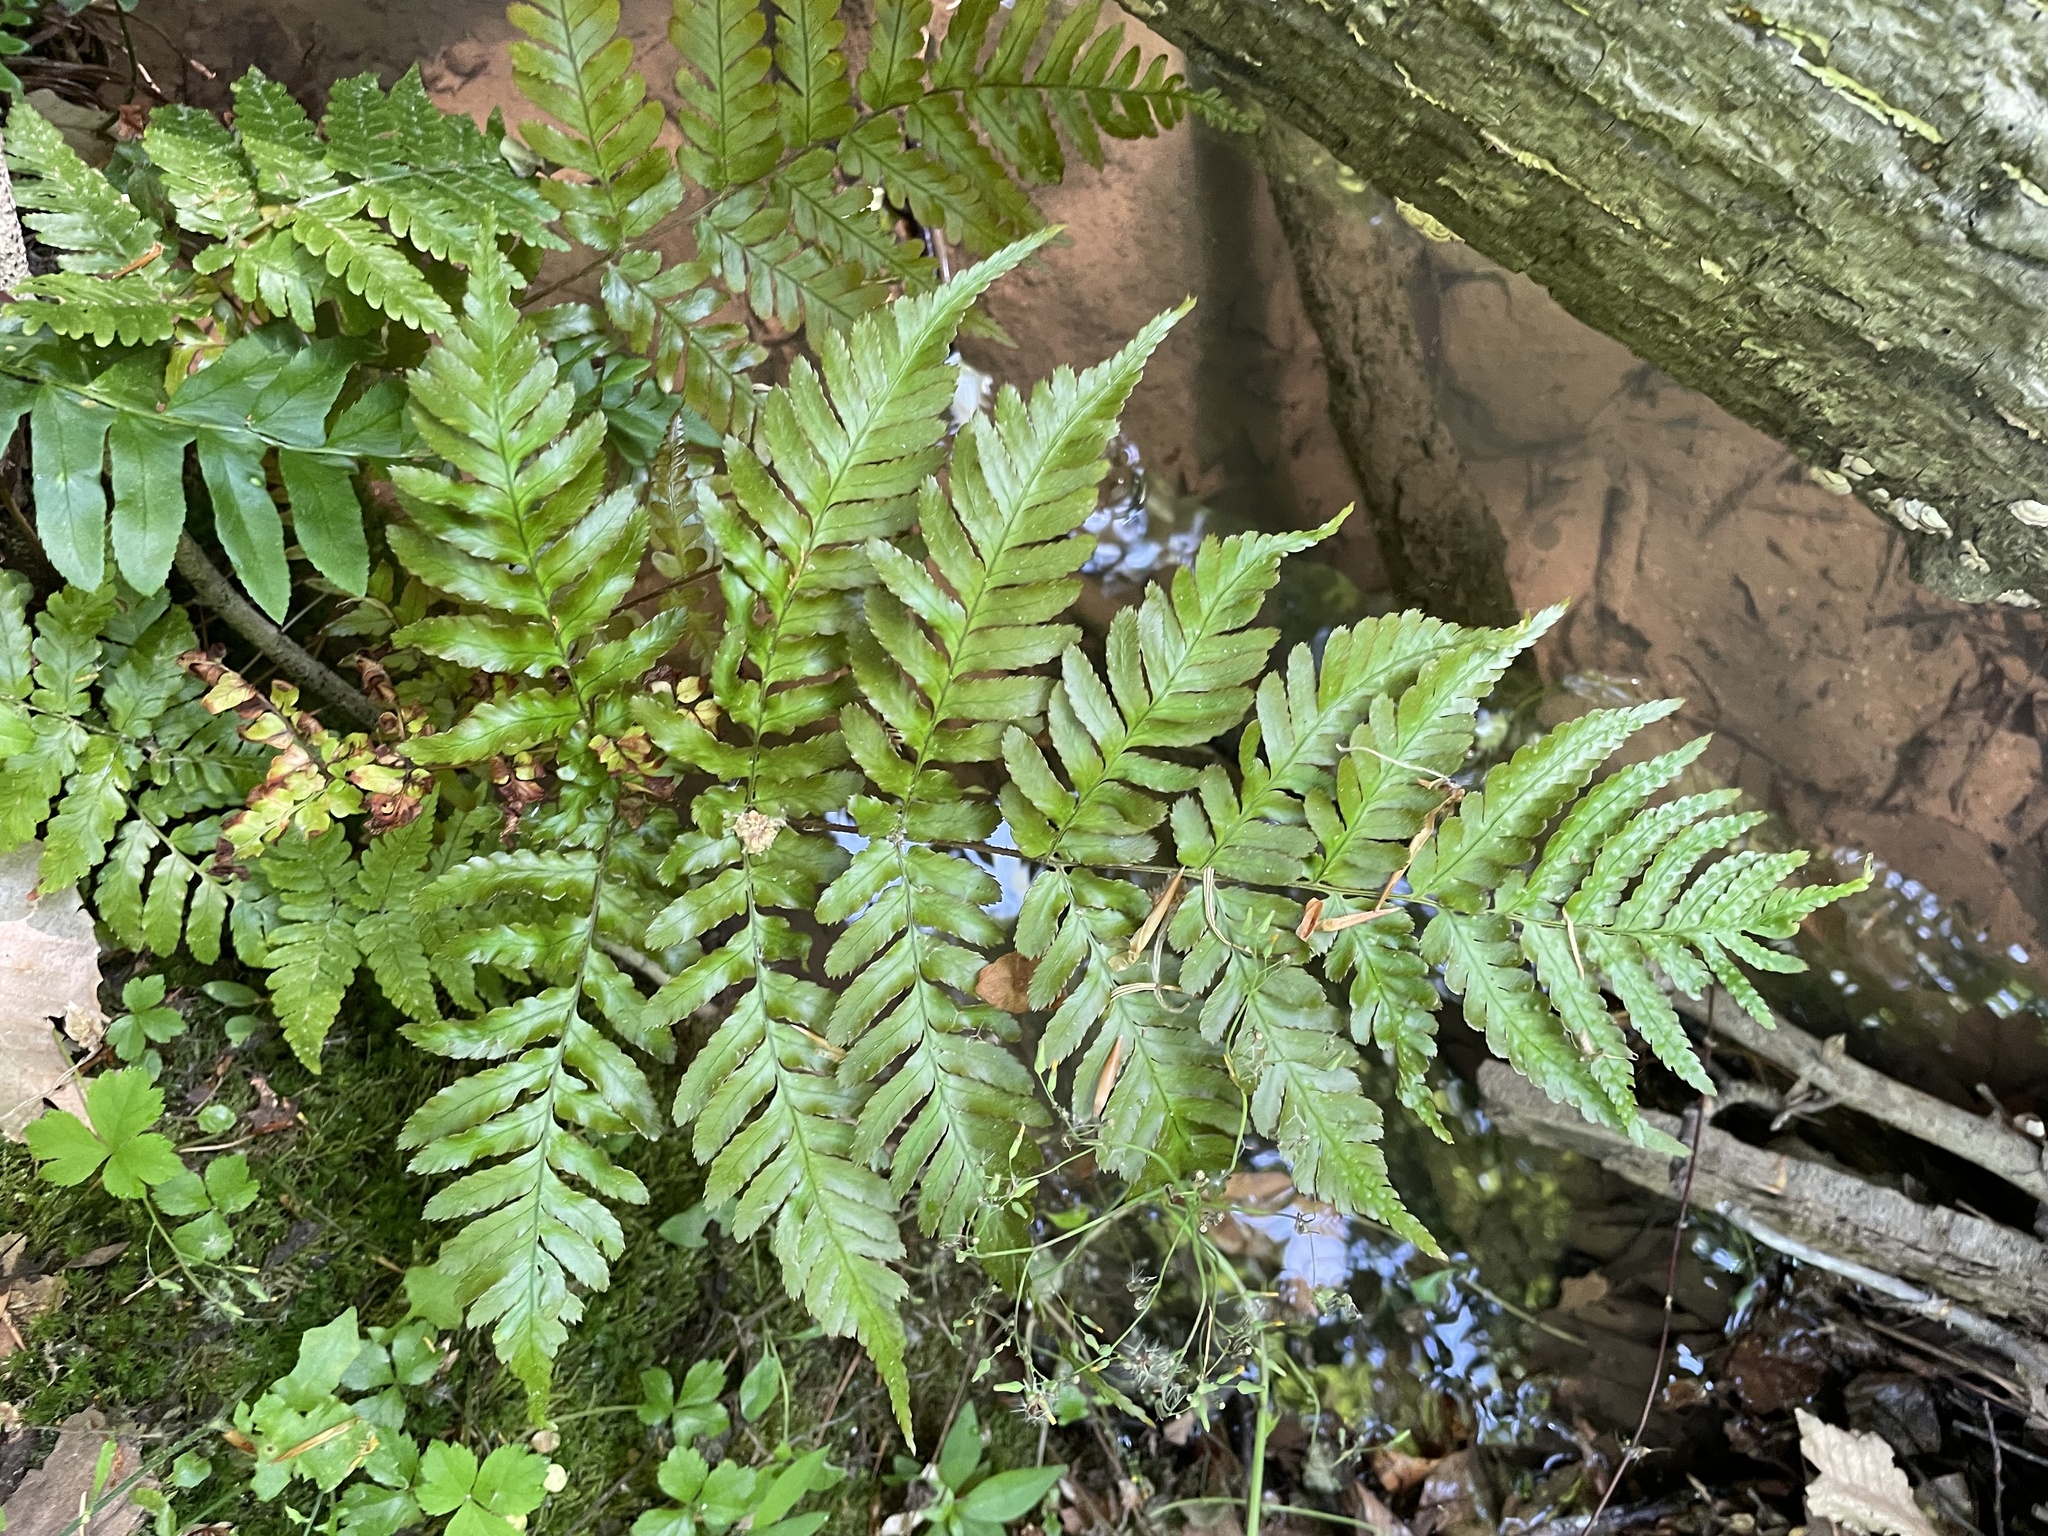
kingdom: Plantae
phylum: Tracheophyta
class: Polypodiopsida
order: Polypodiales
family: Dryopteridaceae
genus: Dryopteris
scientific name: Dryopteris erythrosora
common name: Autumn fern
